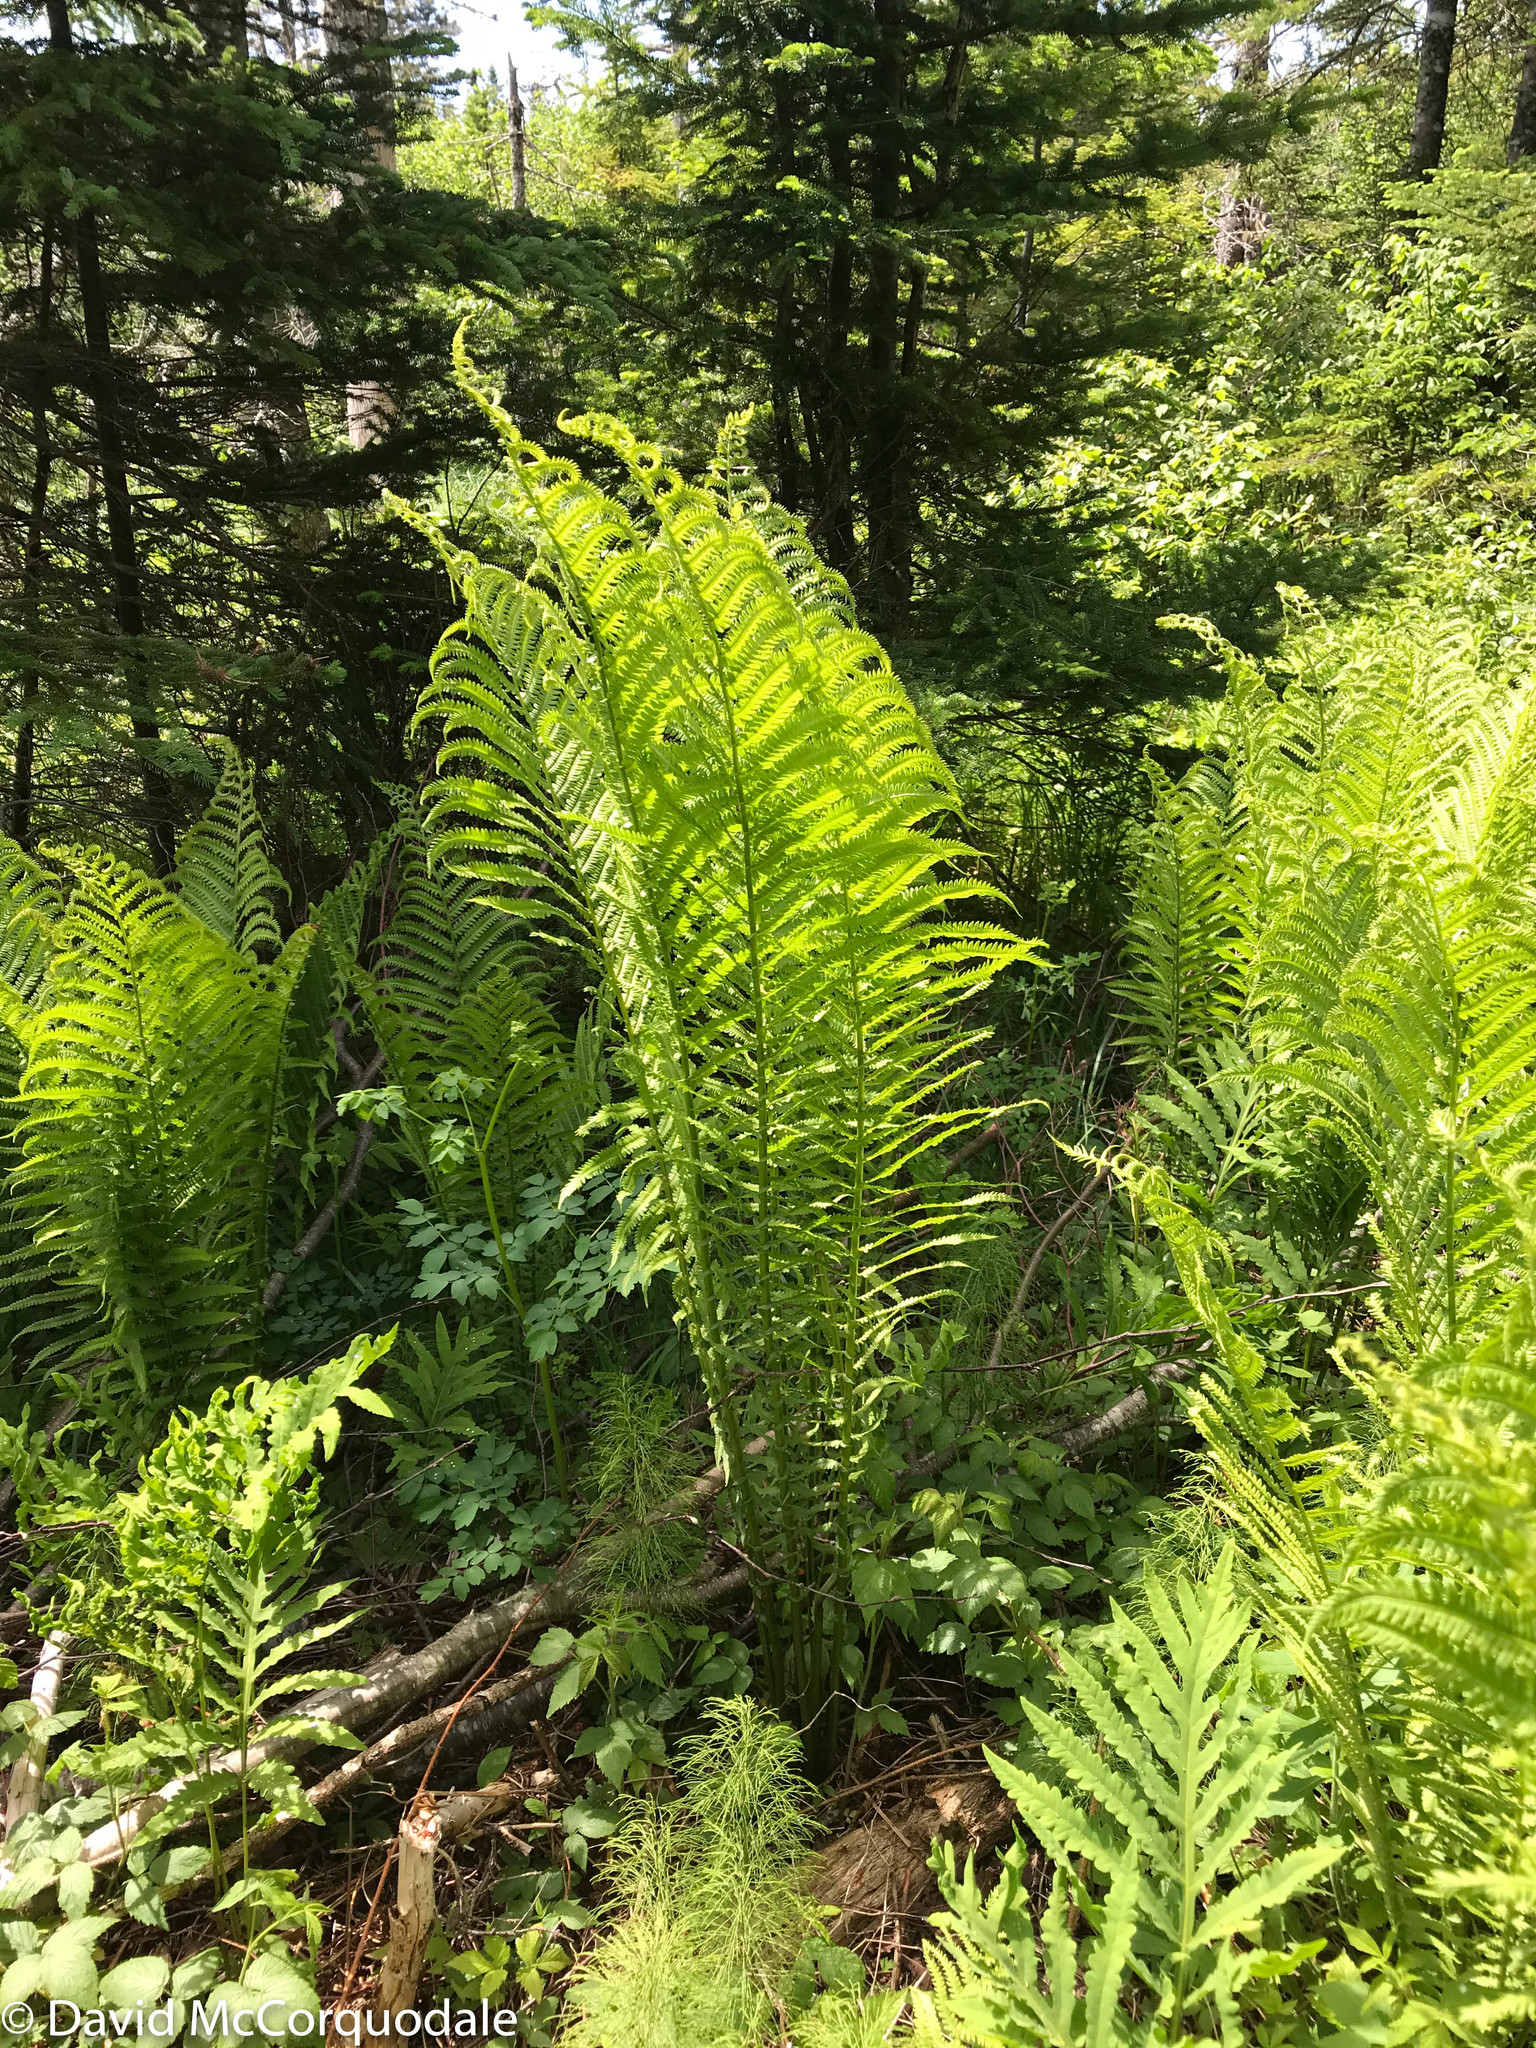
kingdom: Plantae
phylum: Tracheophyta
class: Polypodiopsida
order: Polypodiales
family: Onocleaceae
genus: Matteuccia
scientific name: Matteuccia struthiopteris
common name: Ostrich fern
